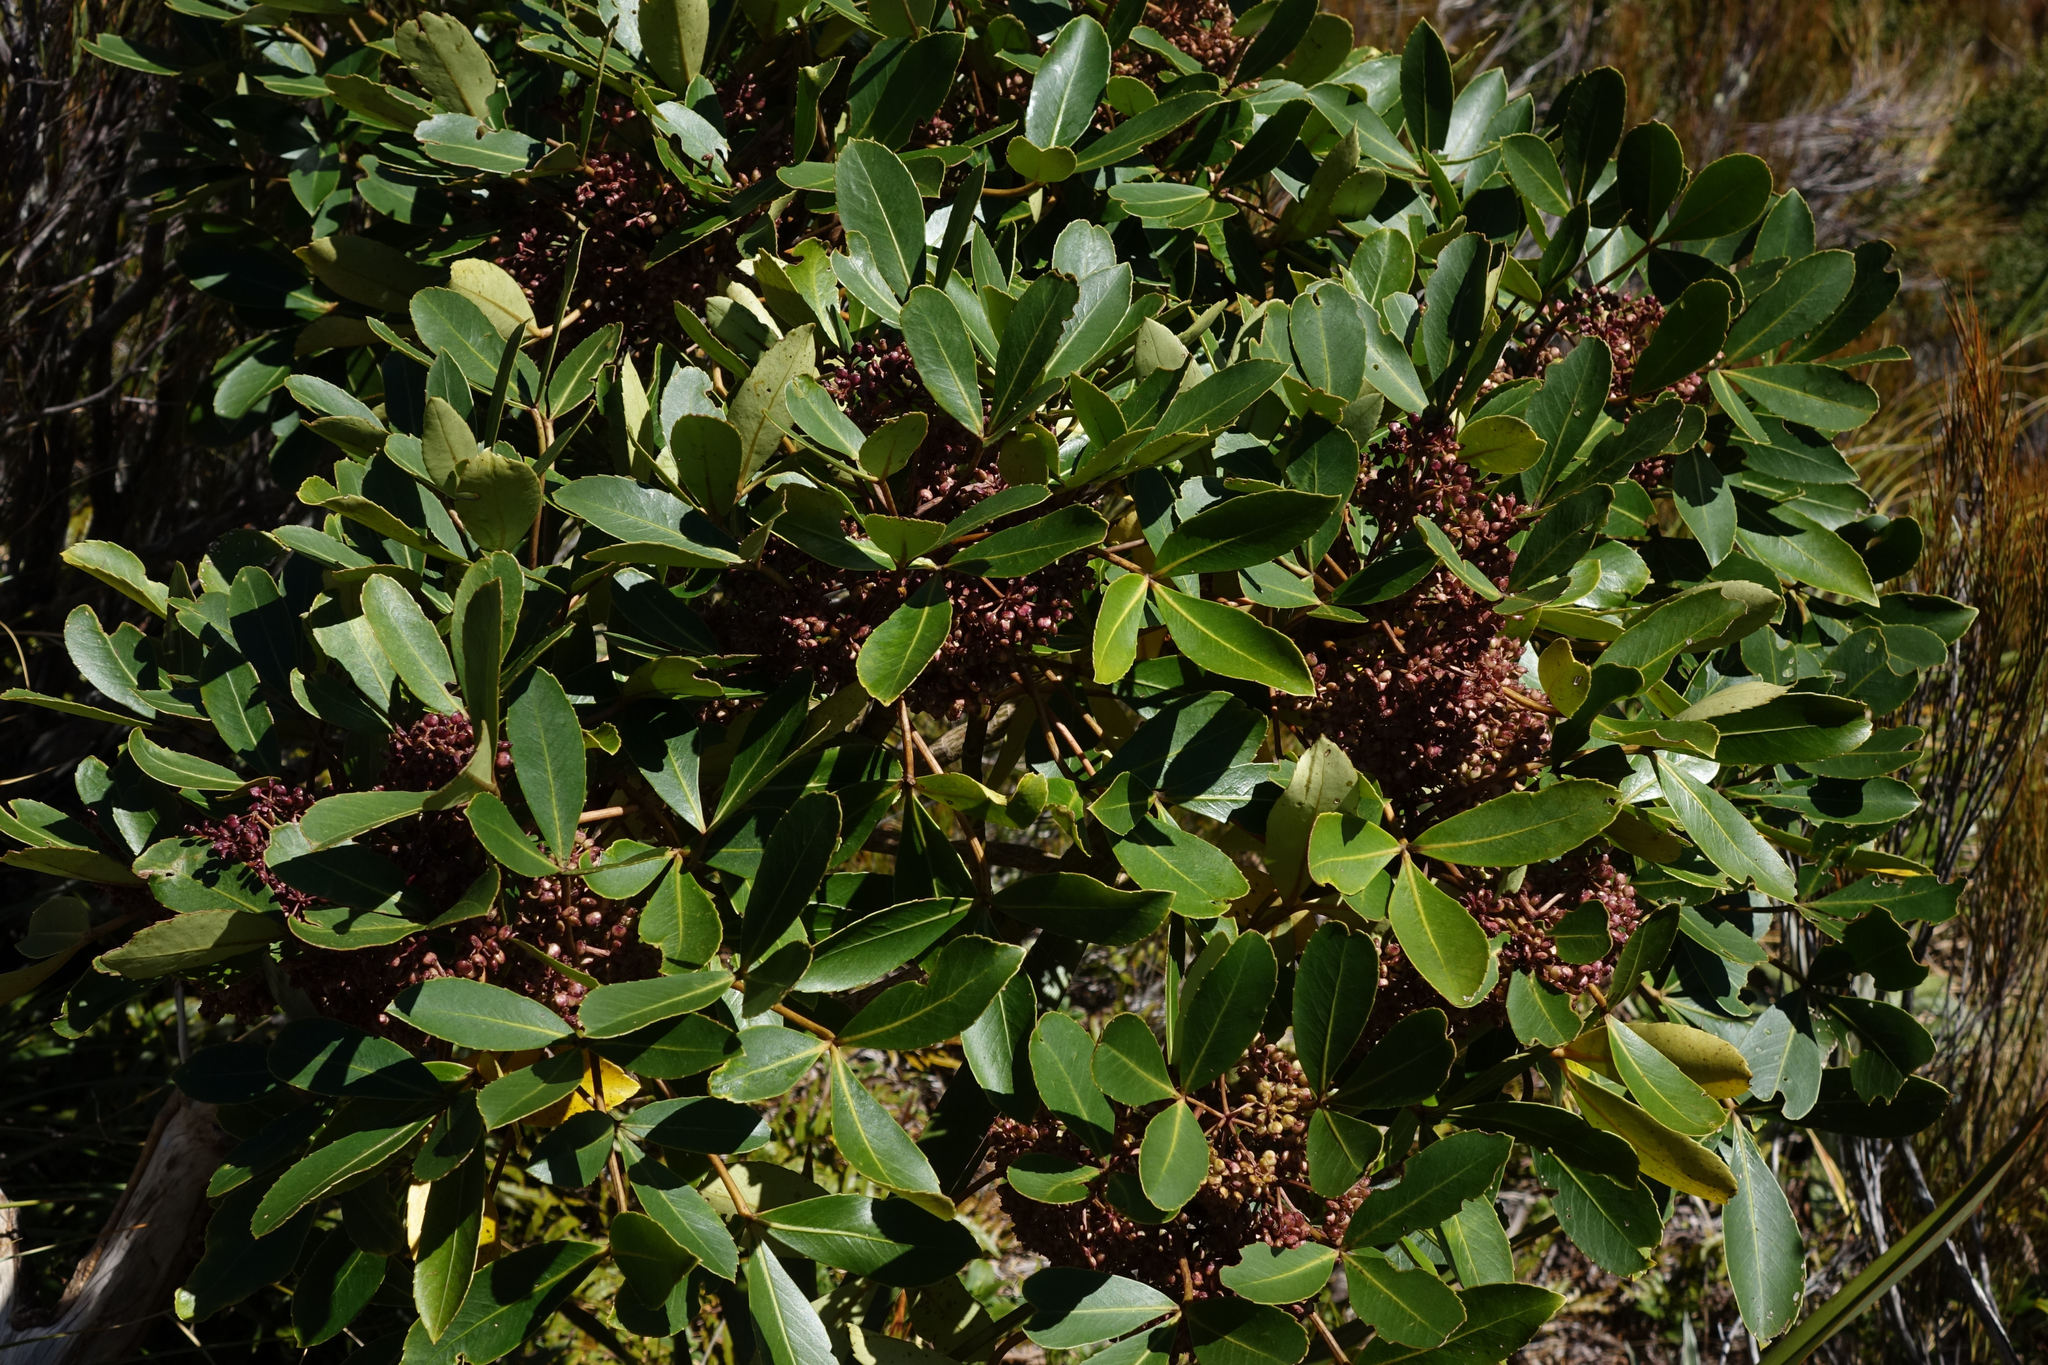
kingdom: Plantae
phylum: Tracheophyta
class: Magnoliopsida
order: Apiales
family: Araliaceae
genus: Neopanax
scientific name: Neopanax colensoi
